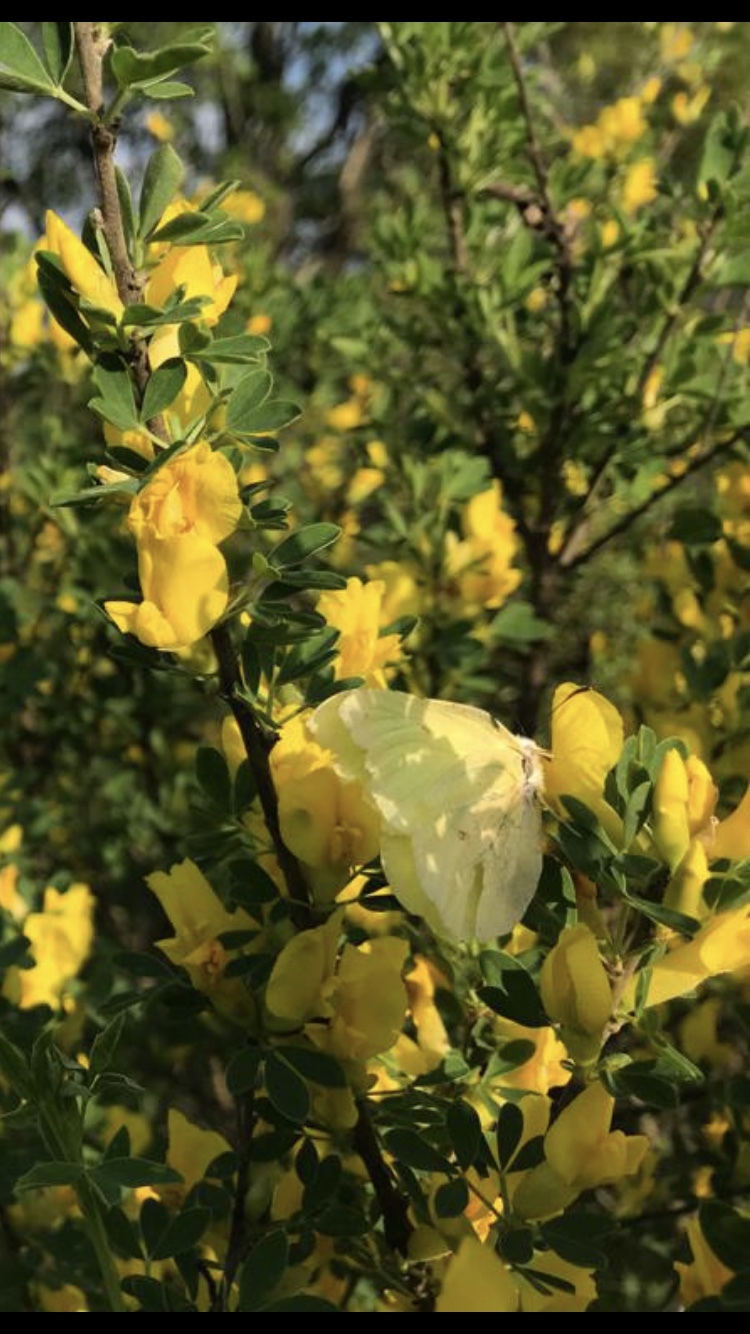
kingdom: Animalia
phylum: Arthropoda
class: Insecta
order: Lepidoptera
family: Pieridae
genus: Gonepteryx
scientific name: Gonepteryx rhamni
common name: Brimstone
